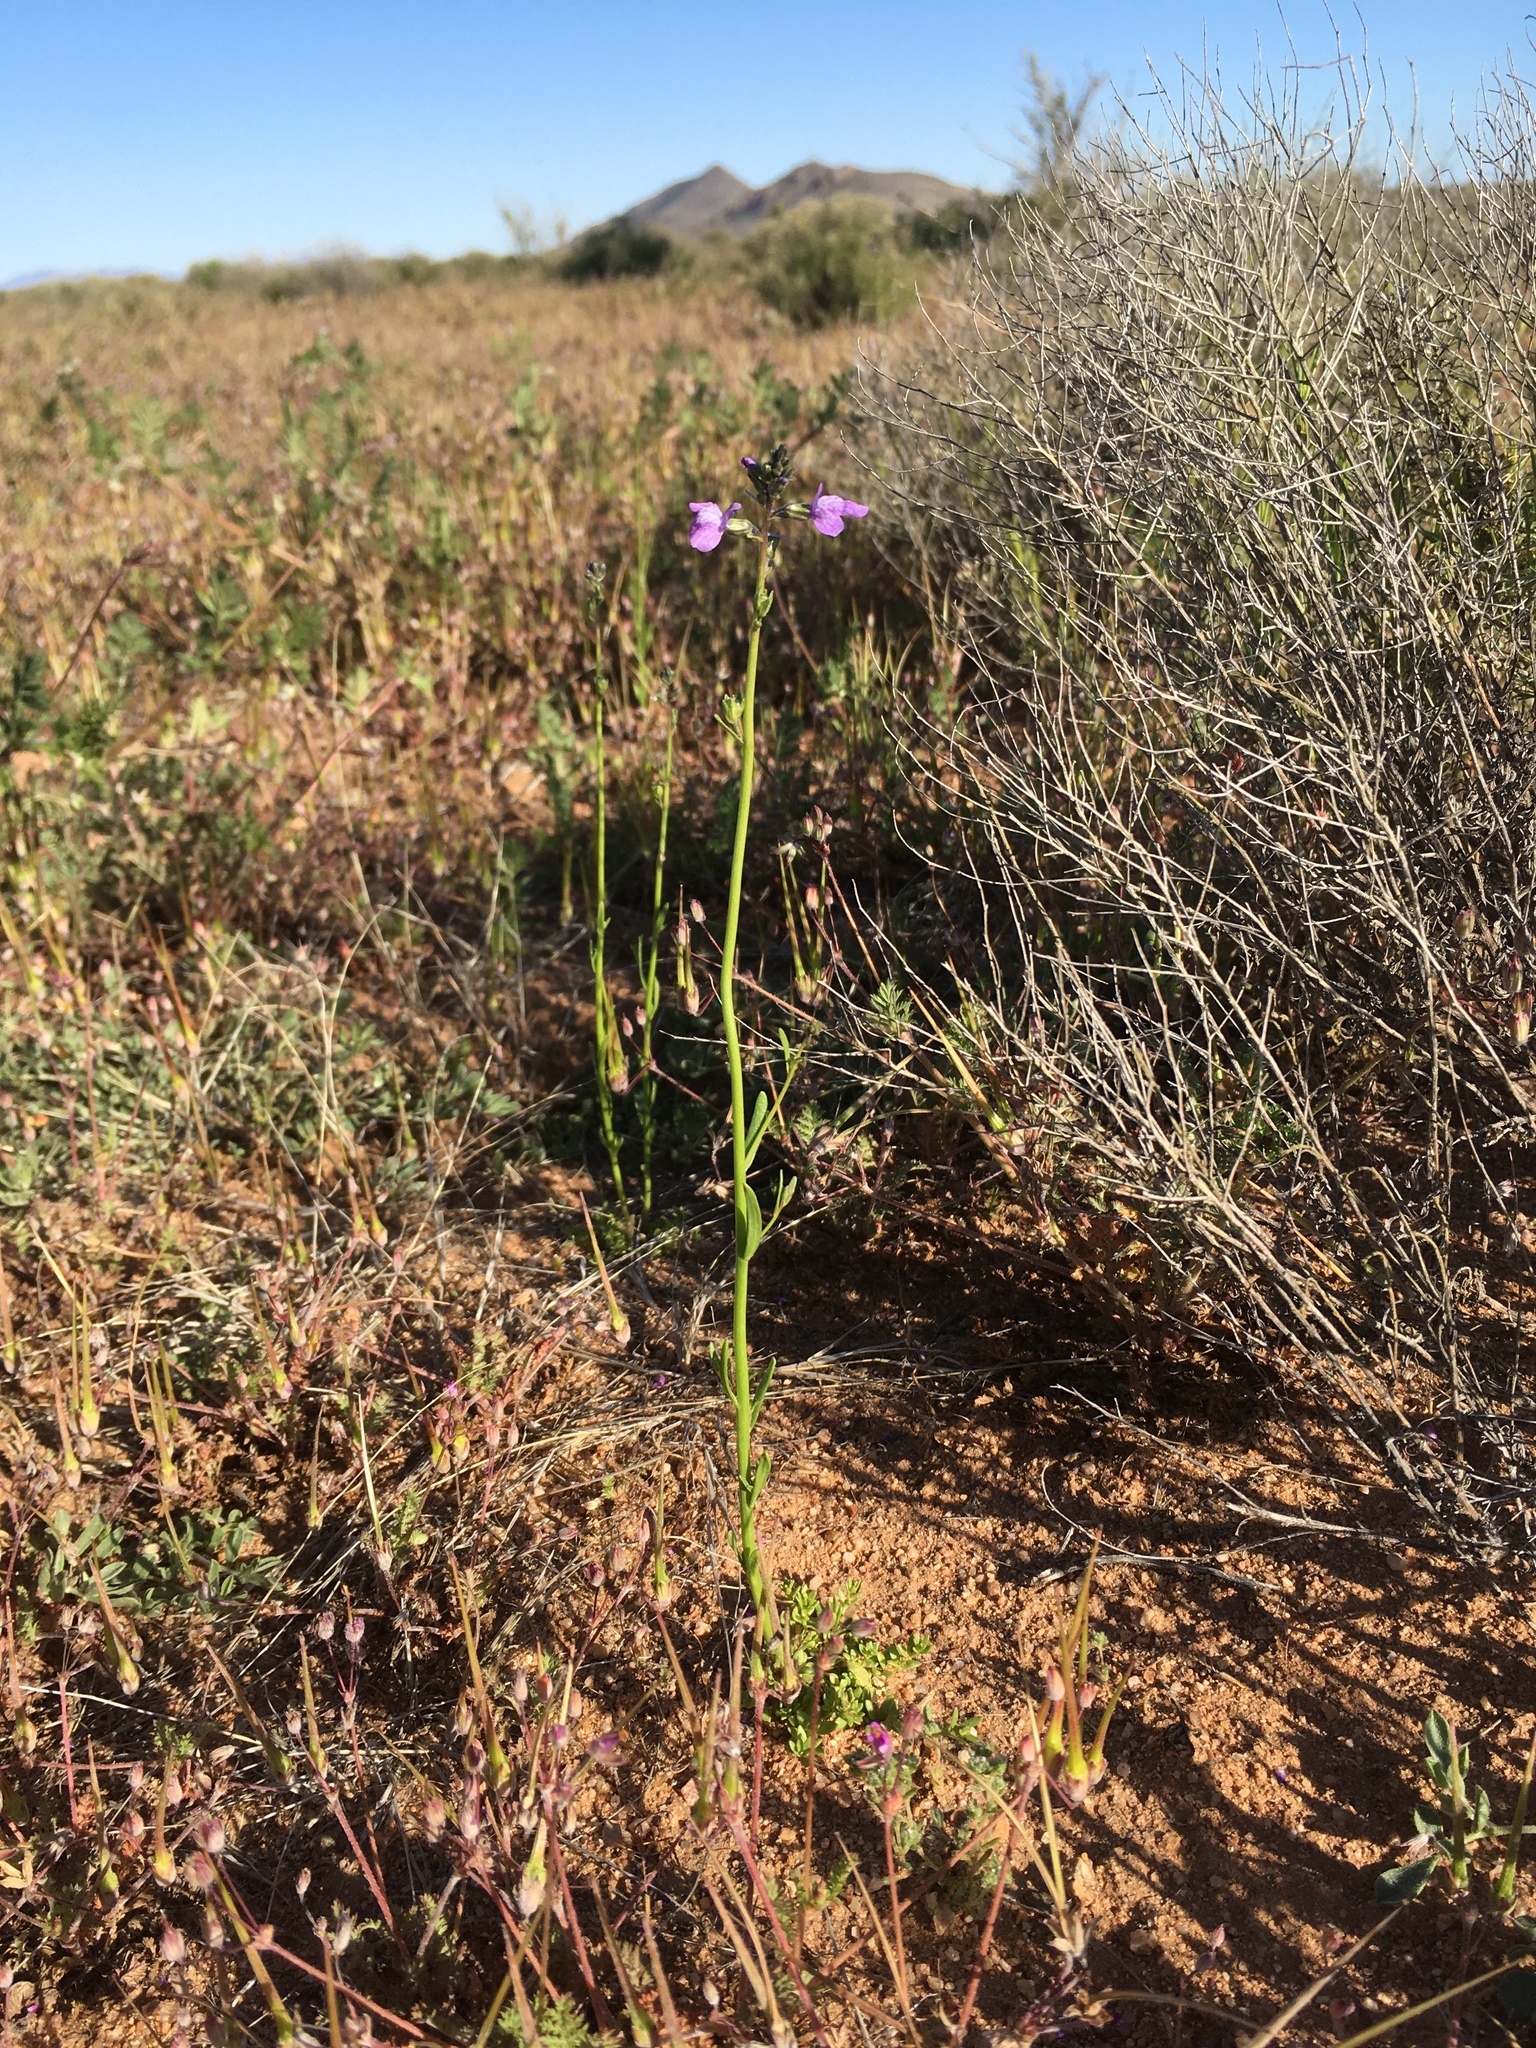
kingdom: Plantae
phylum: Tracheophyta
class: Magnoliopsida
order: Lamiales
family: Plantaginaceae
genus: Nuttallanthus
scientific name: Nuttallanthus texanus
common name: Texas toadflax
